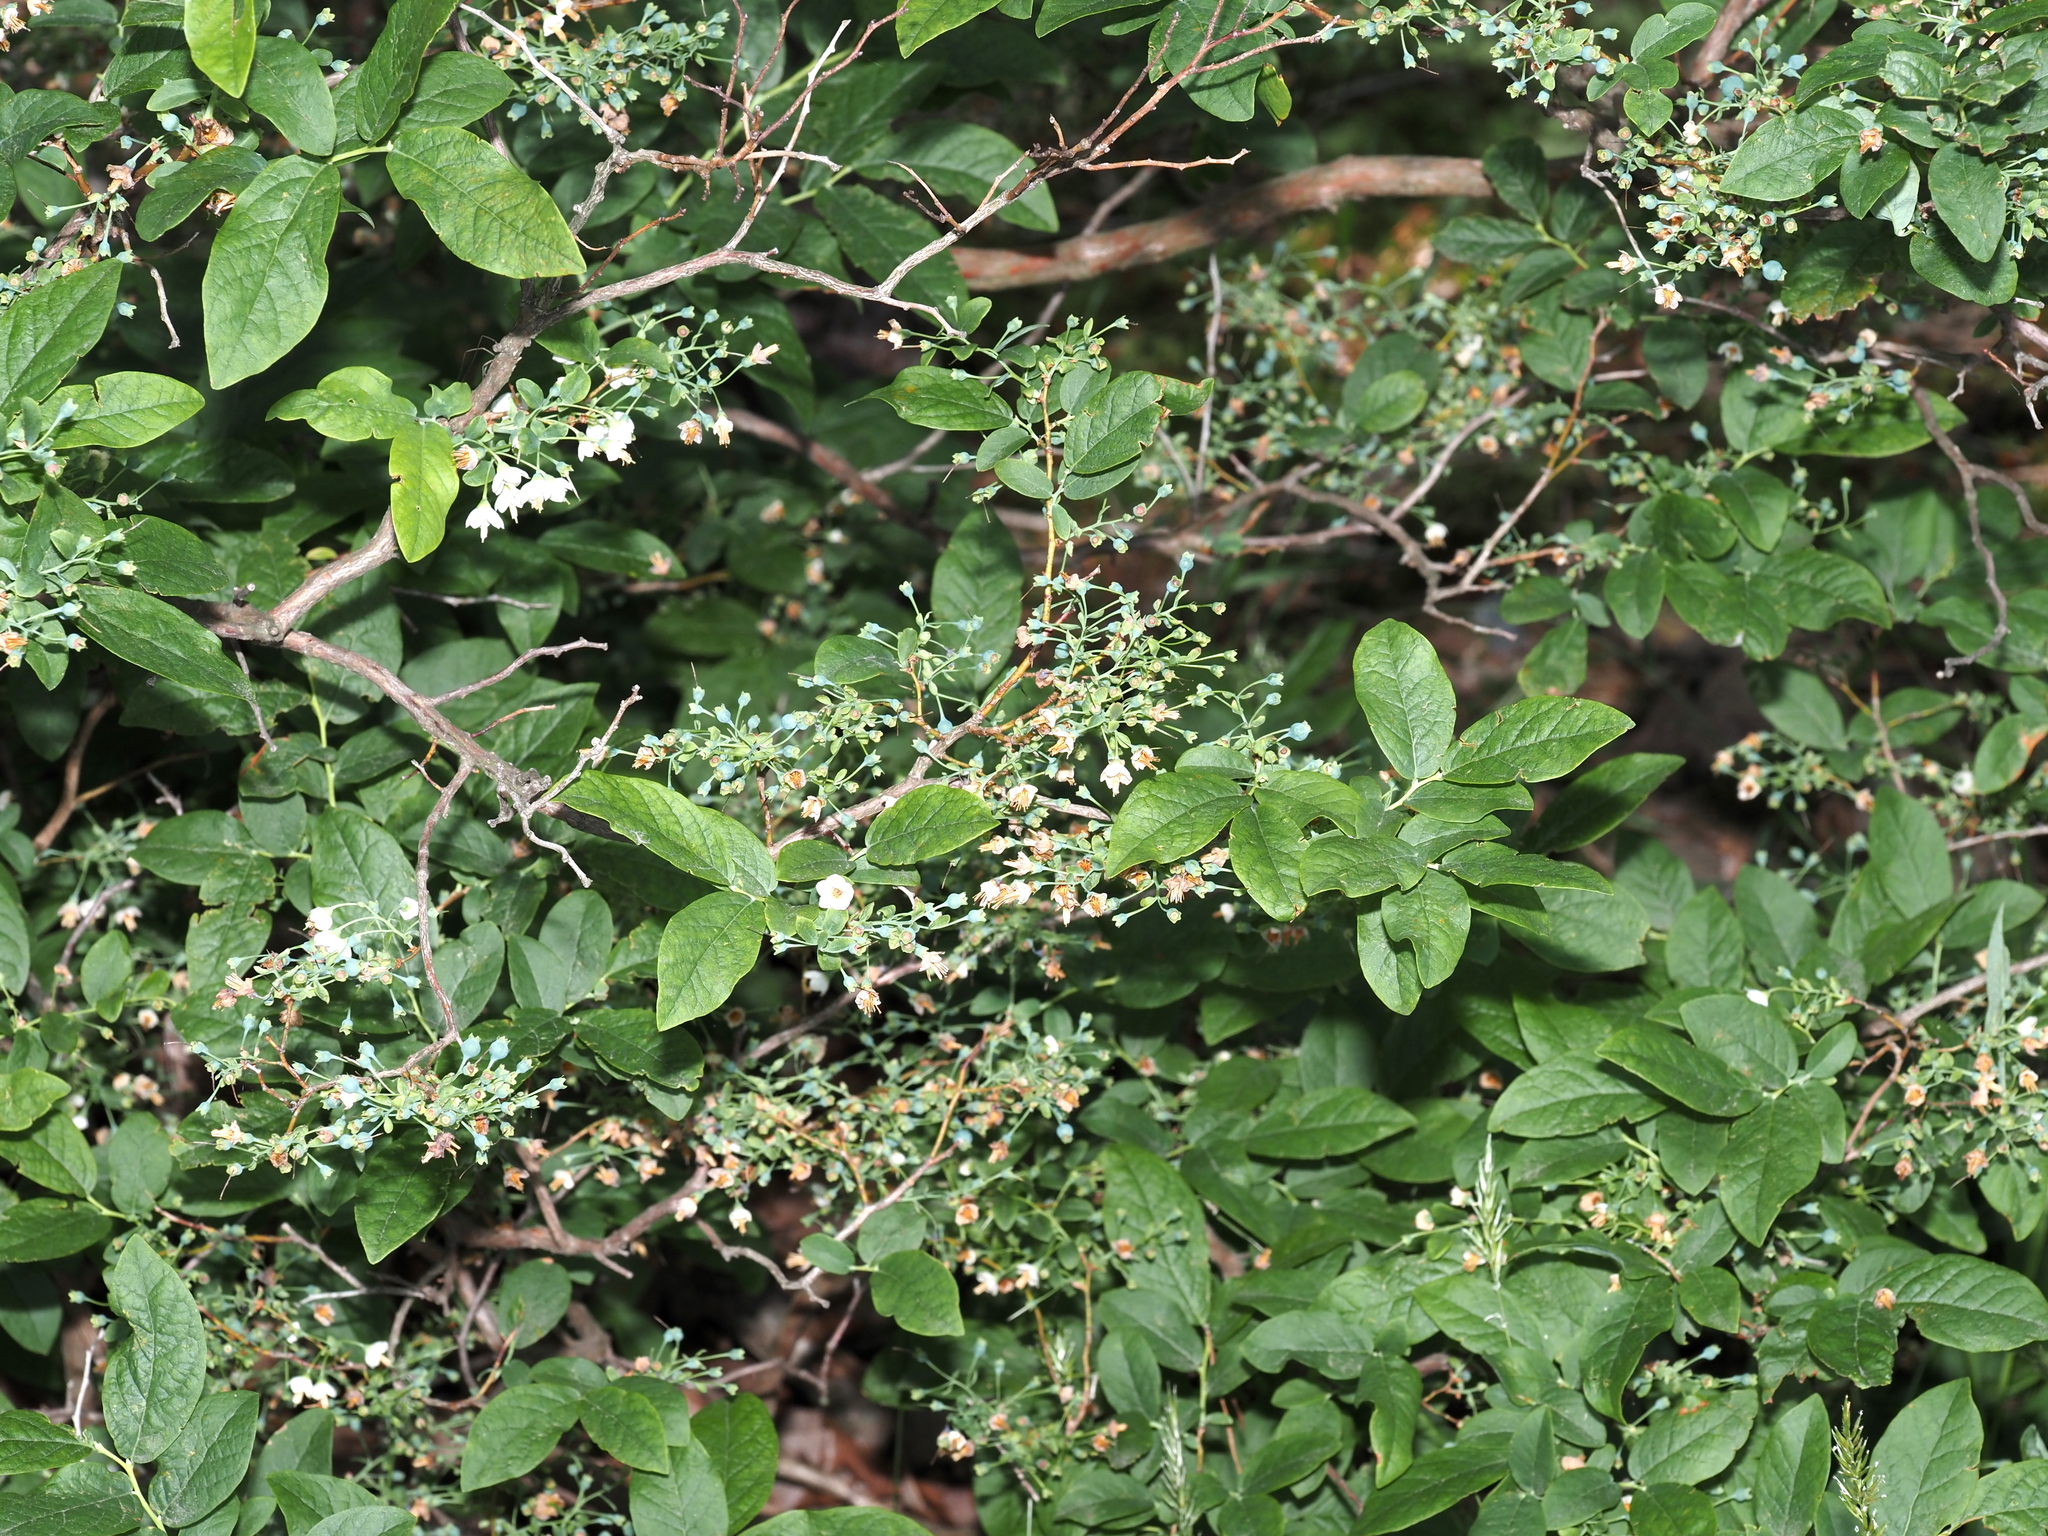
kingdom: Plantae
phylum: Tracheophyta
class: Magnoliopsida
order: Ericales
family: Ericaceae
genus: Vaccinium
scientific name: Vaccinium stamineum
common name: Deerberry
